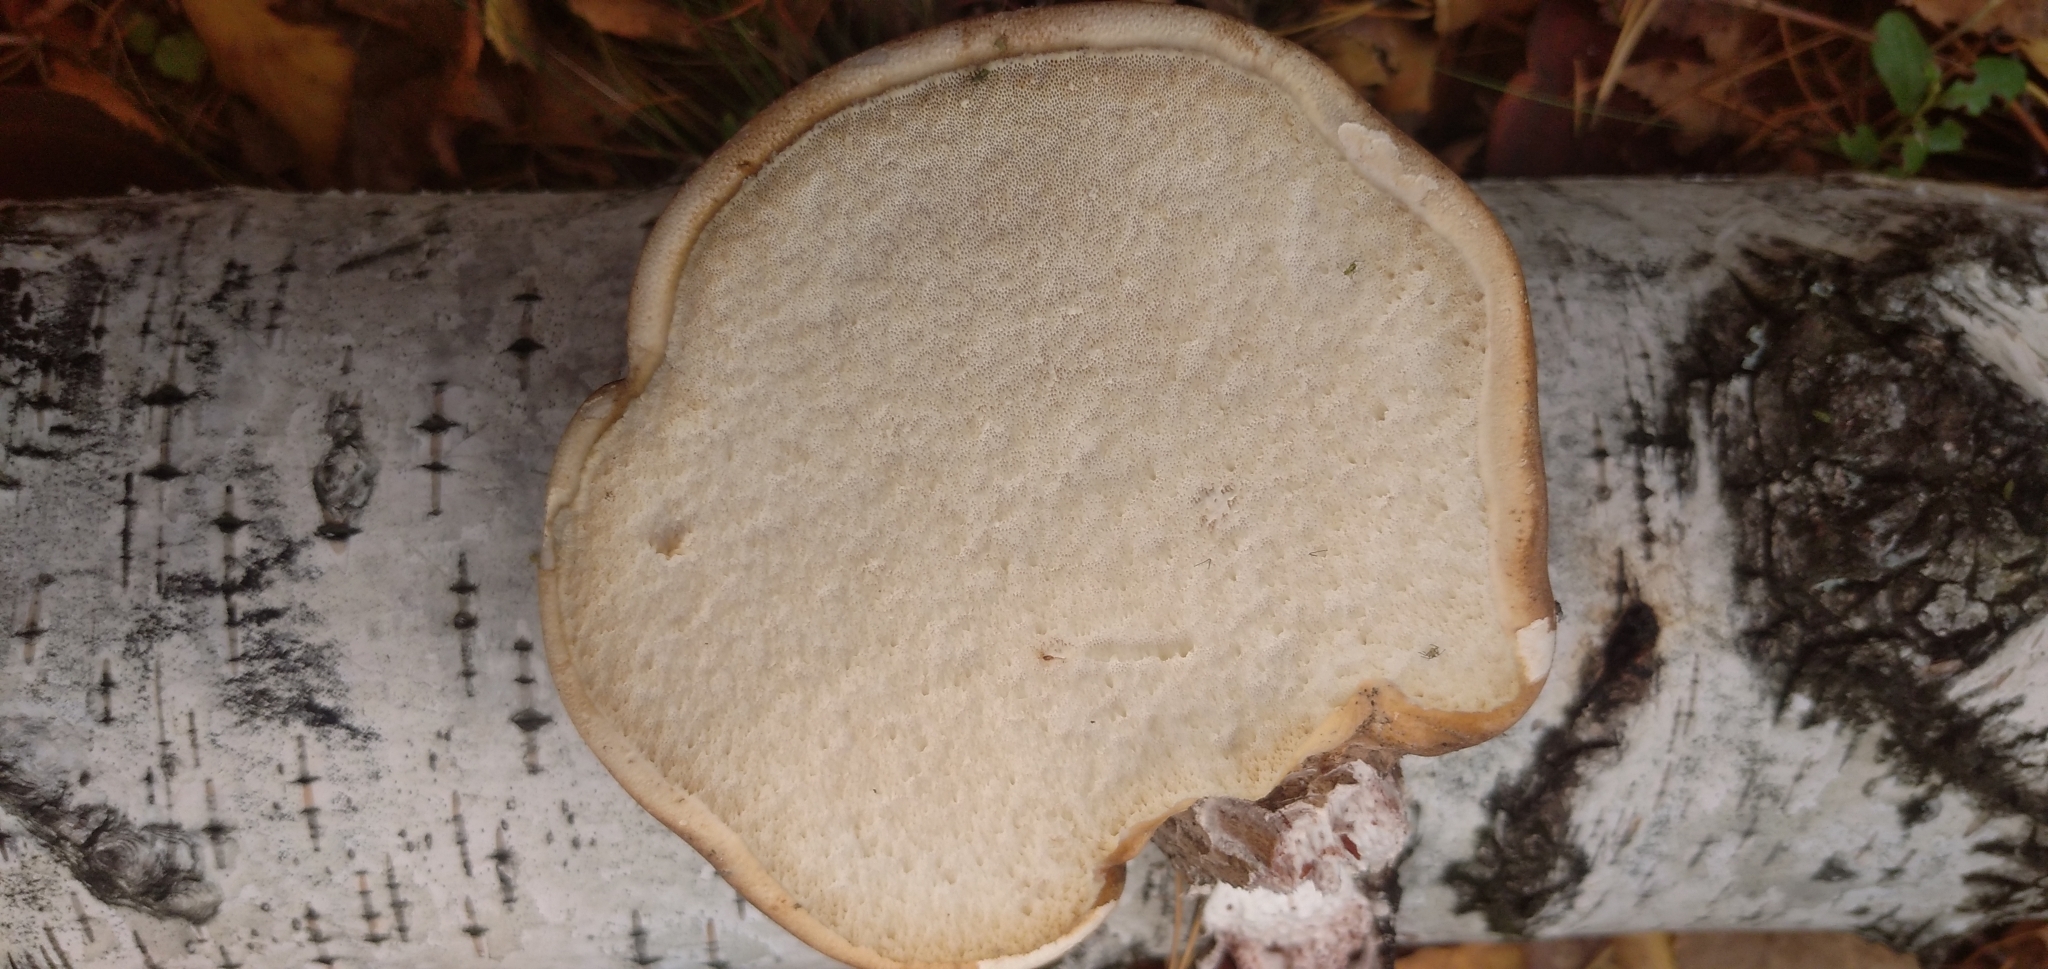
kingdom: Fungi
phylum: Basidiomycota
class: Agaricomycetes
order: Polyporales
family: Fomitopsidaceae
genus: Fomitopsis
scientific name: Fomitopsis betulina
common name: Birch polypore
